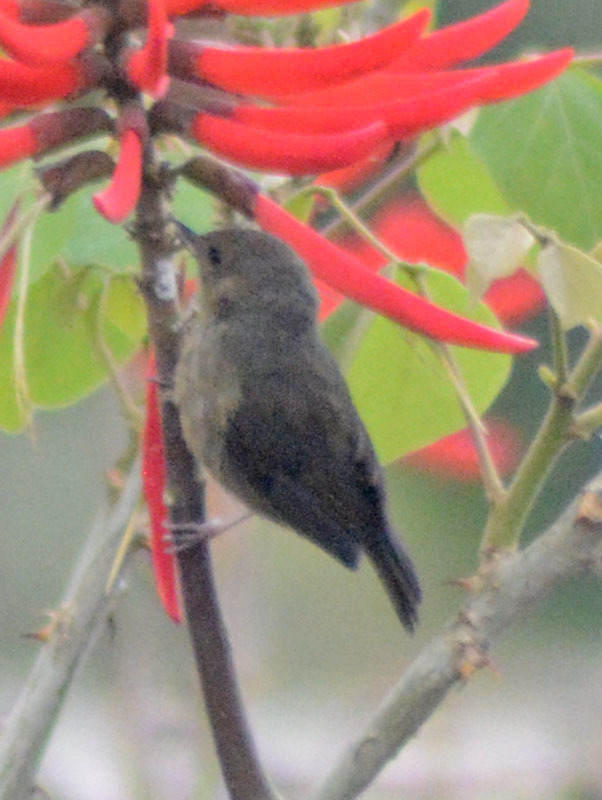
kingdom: Animalia
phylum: Chordata
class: Aves
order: Passeriformes
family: Thraupidae
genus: Diglossa
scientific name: Diglossa baritula
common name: Cinnamon-bellied flowerpiercer
